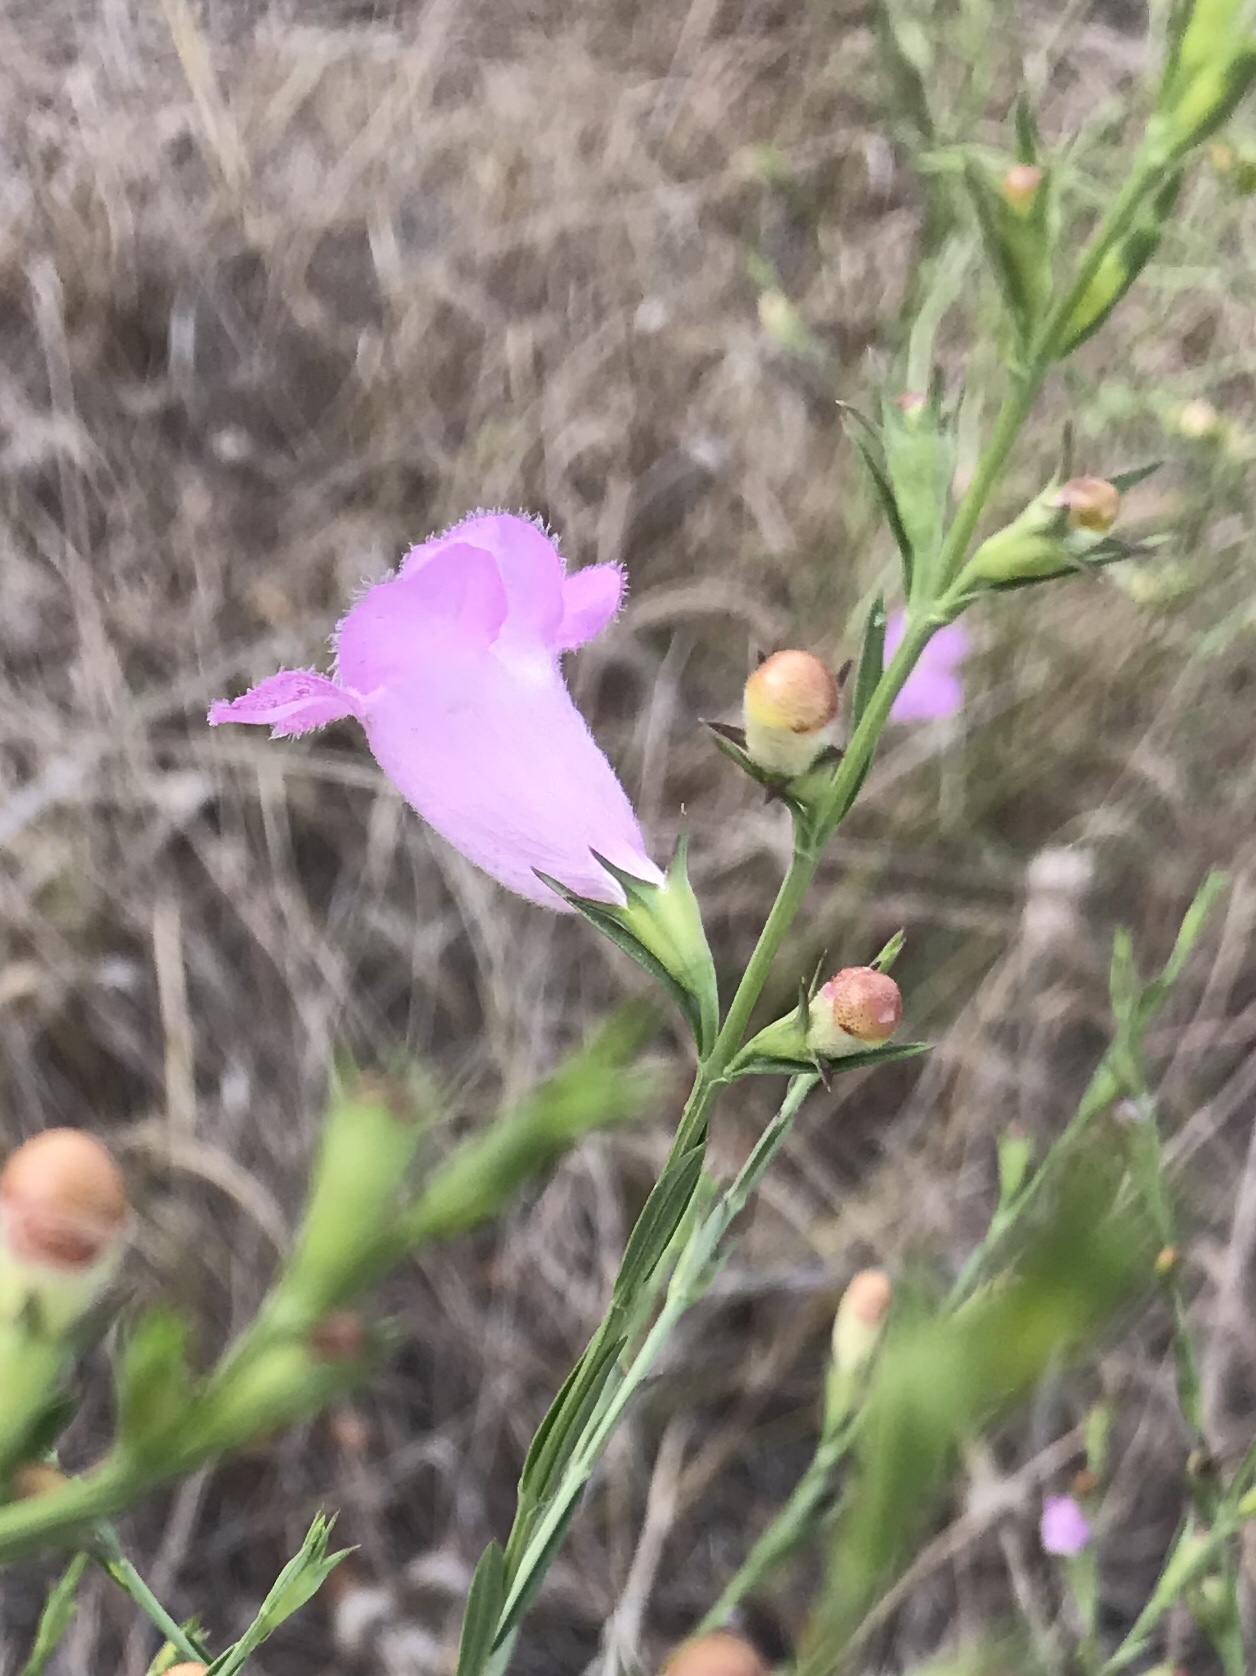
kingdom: Plantae
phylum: Tracheophyta
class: Magnoliopsida
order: Lamiales
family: Orobanchaceae
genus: Agalinis
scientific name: Agalinis heterophylla
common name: Prairie agalinis
